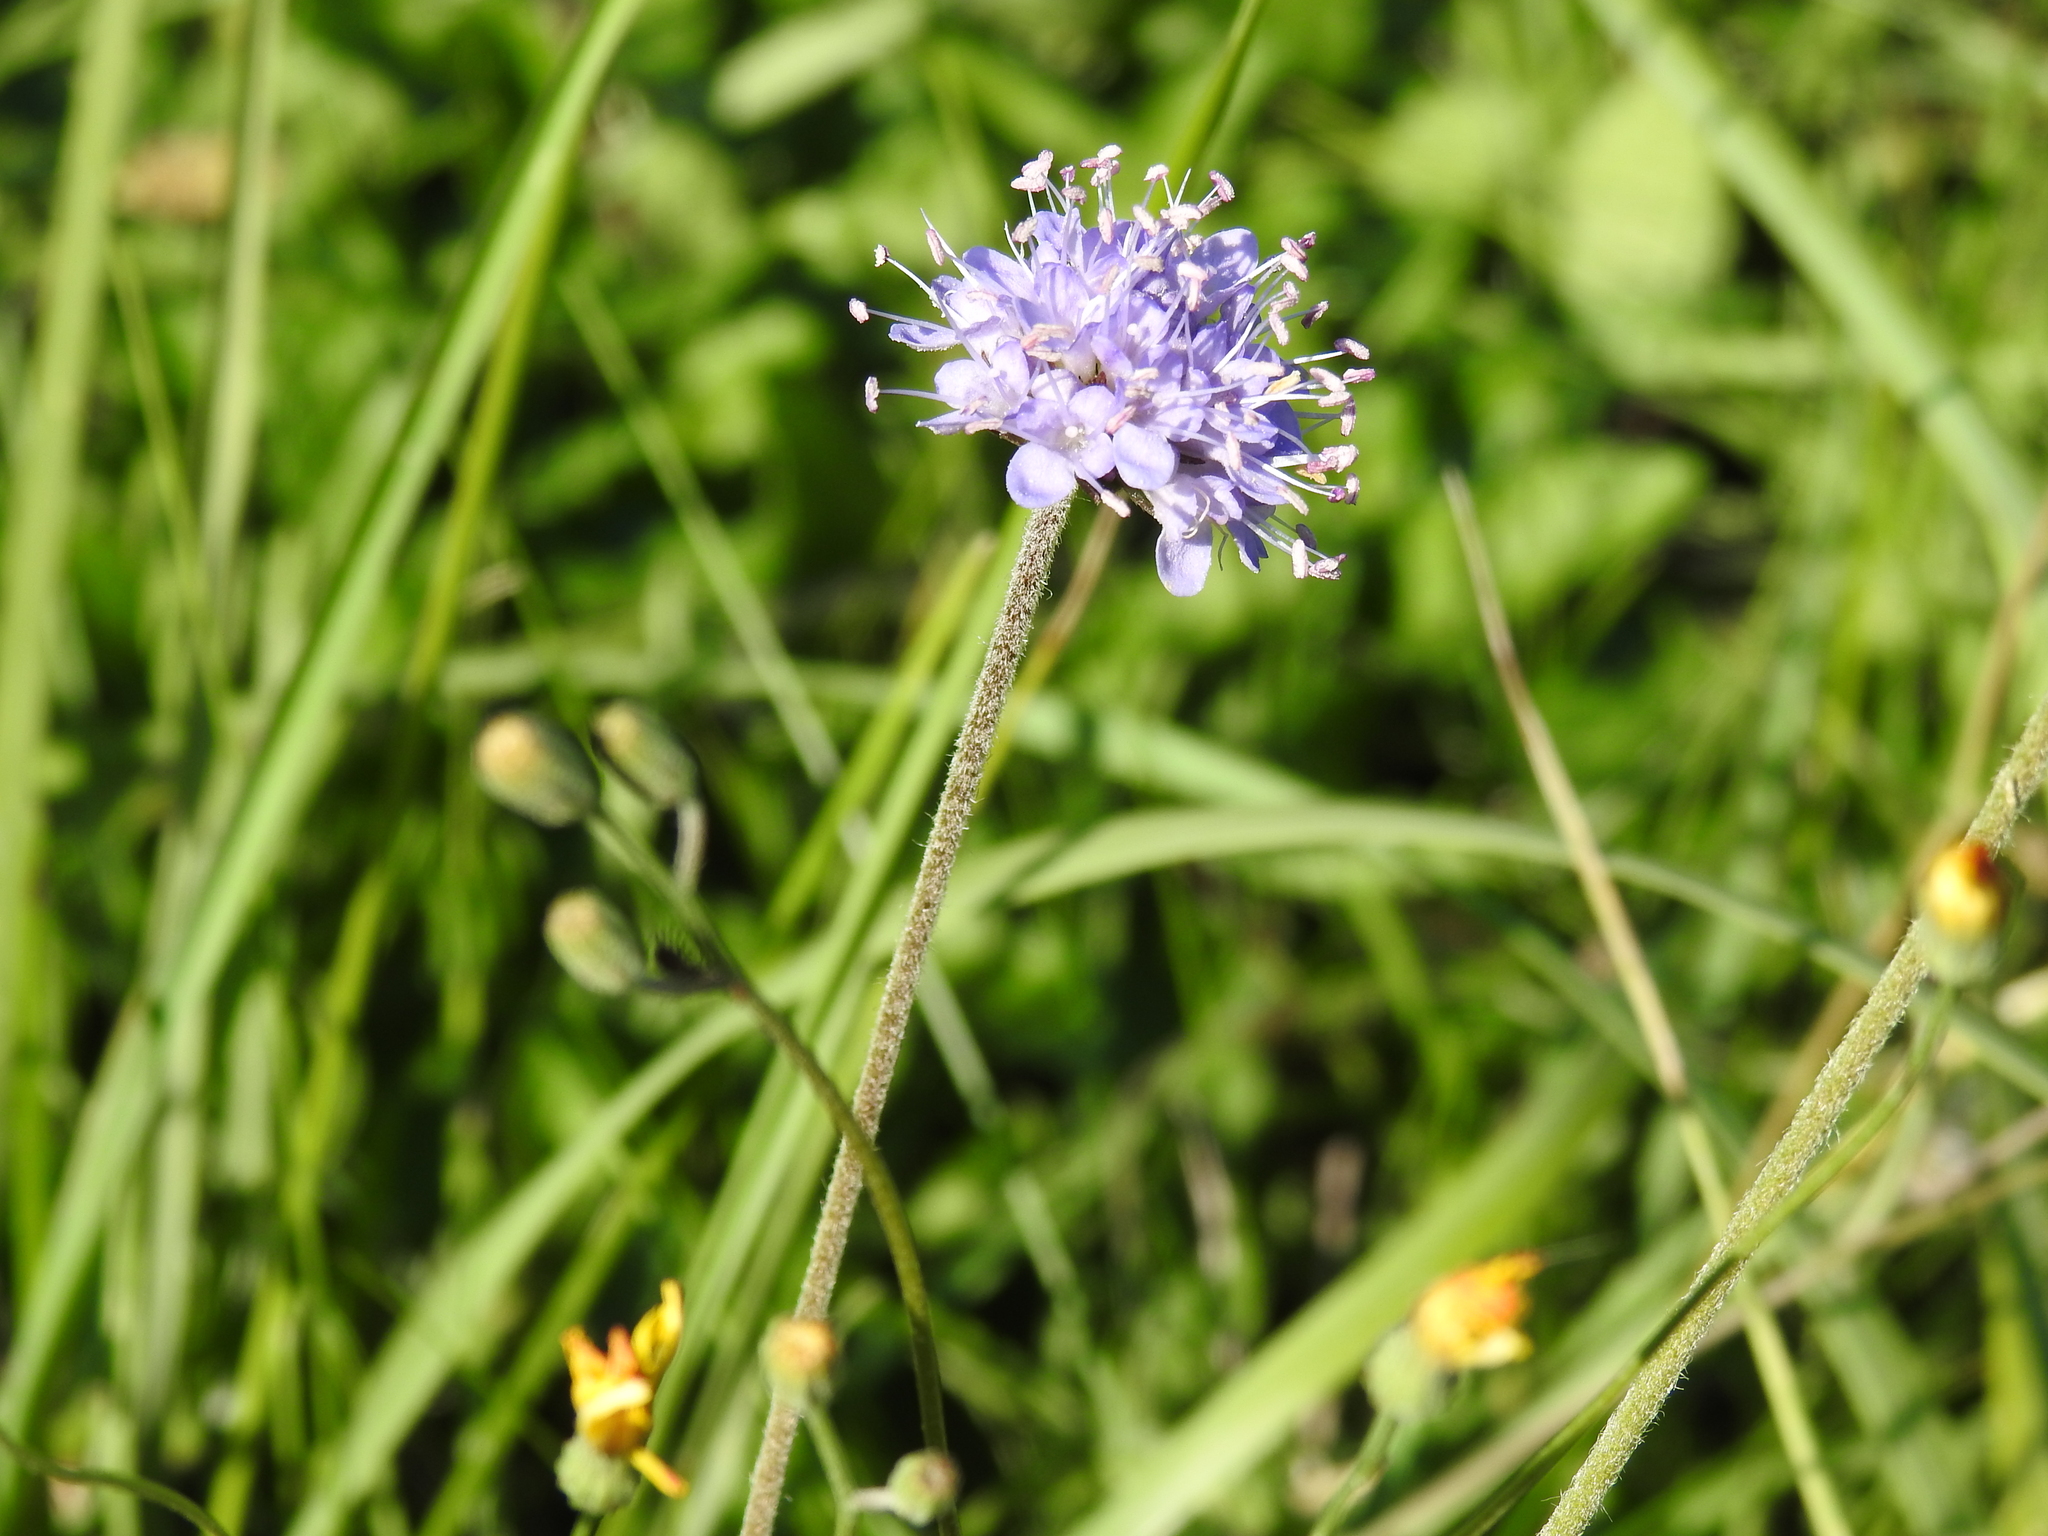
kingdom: Plantae
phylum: Tracheophyta
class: Magnoliopsida
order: Dipsacales
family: Caprifoliaceae
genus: Succisa
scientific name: Succisa pratensis
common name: Devil's-bit
